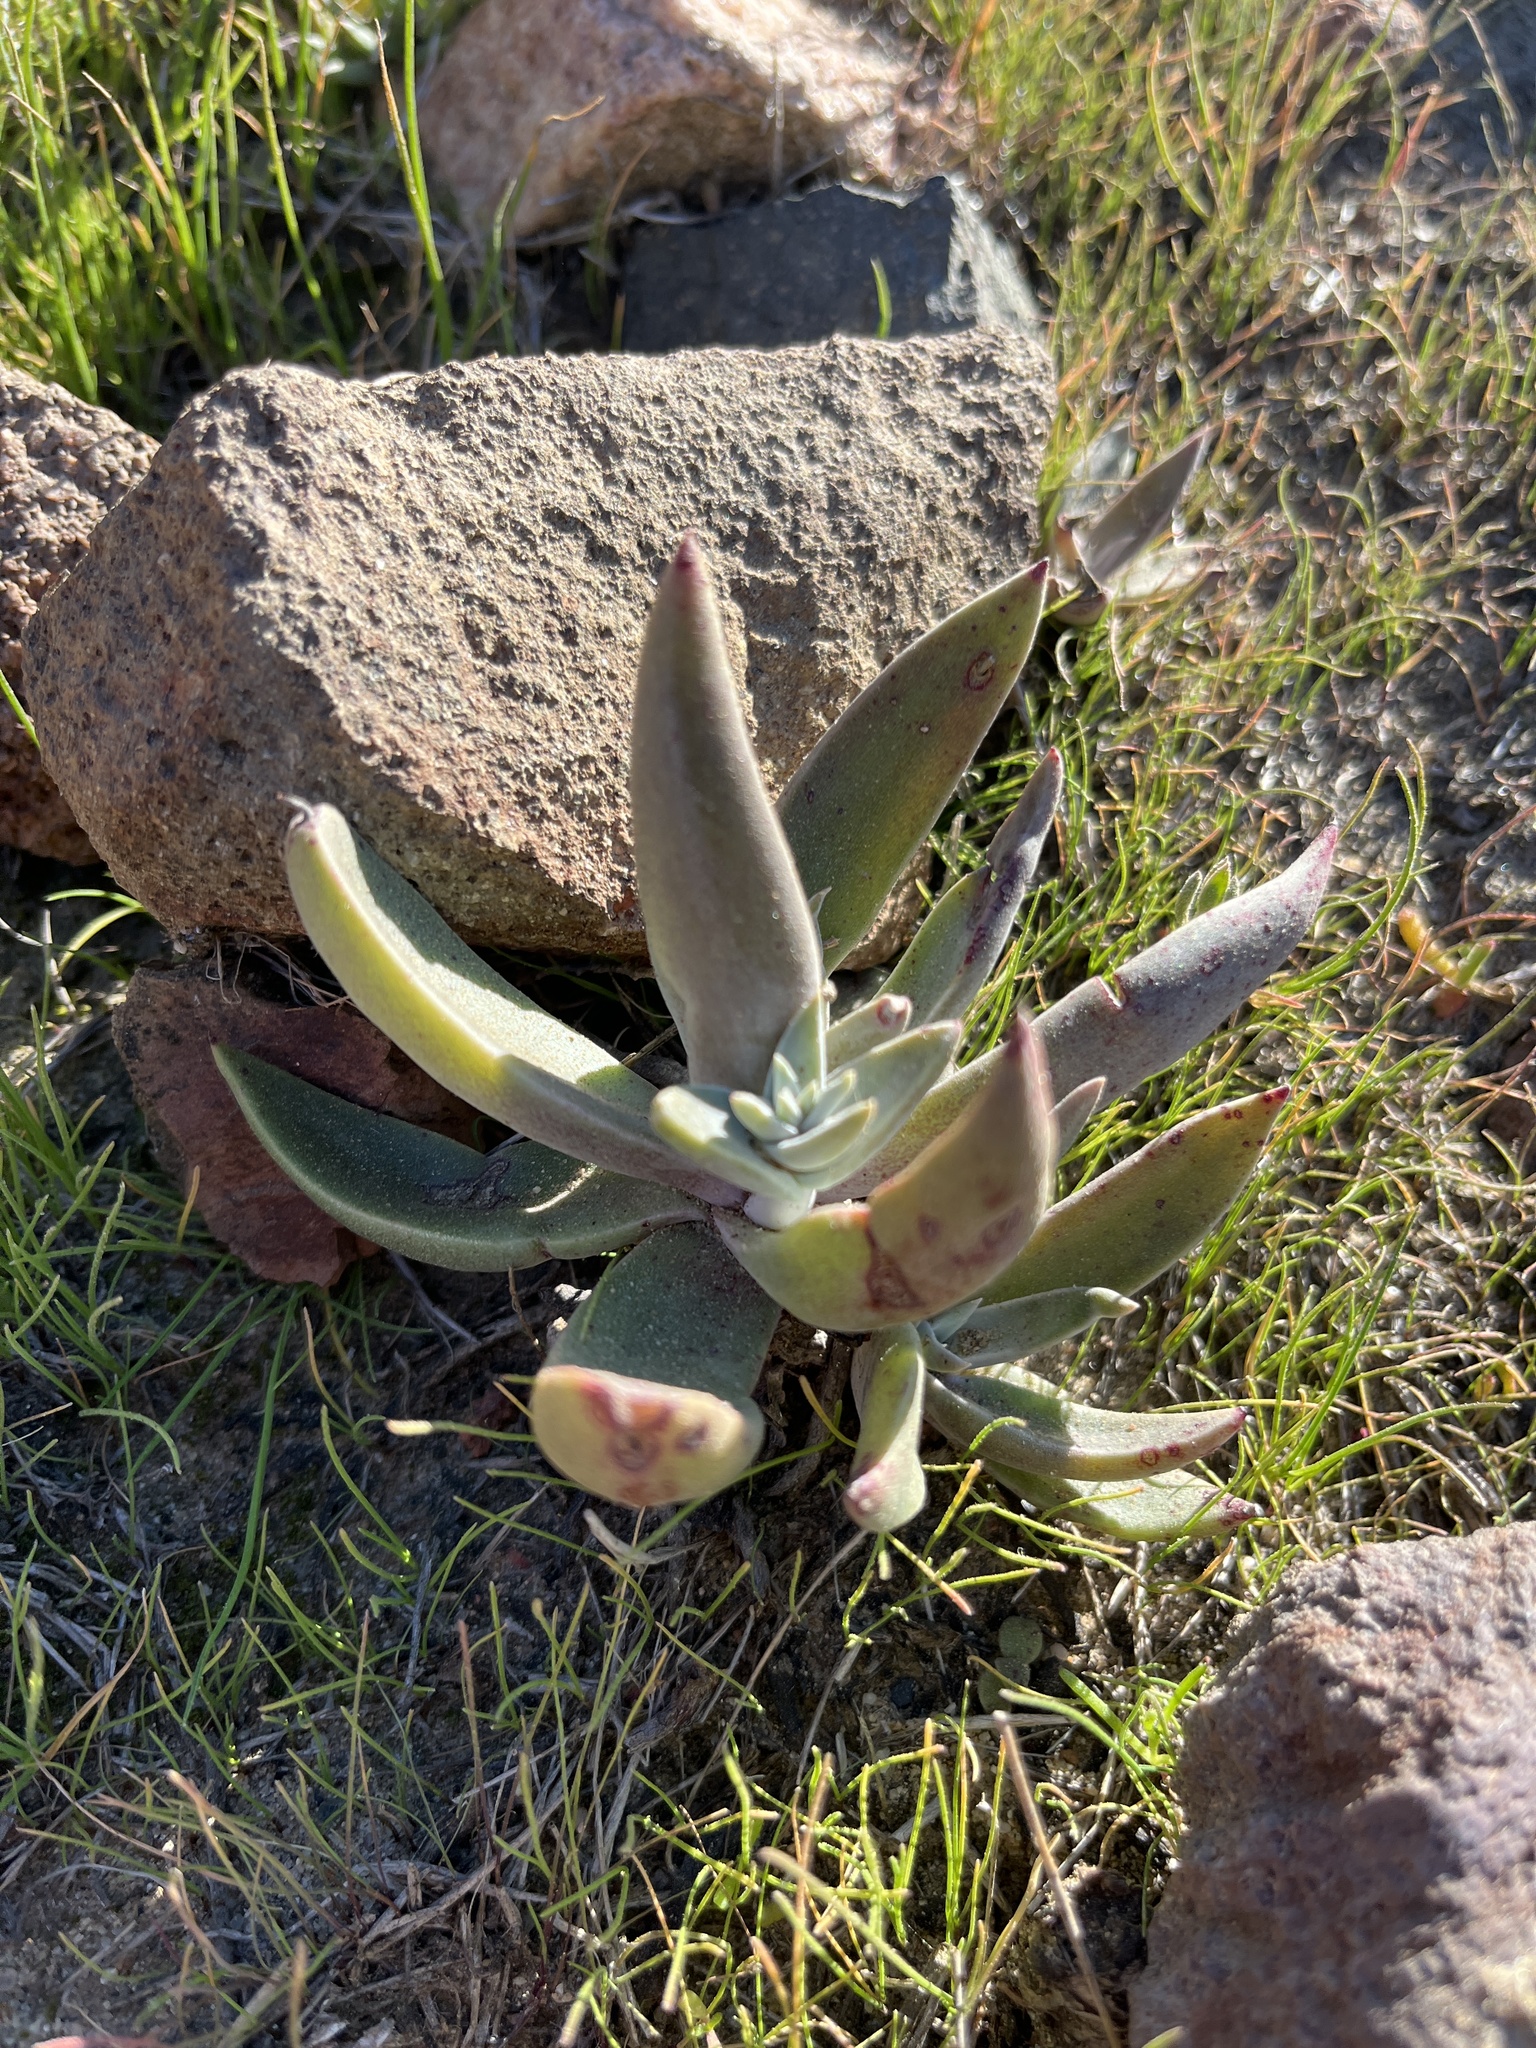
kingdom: Plantae
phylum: Tracheophyta
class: Magnoliopsida
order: Saxifragales
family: Crassulaceae
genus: Dudleya
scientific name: Dudleya lanceolata
